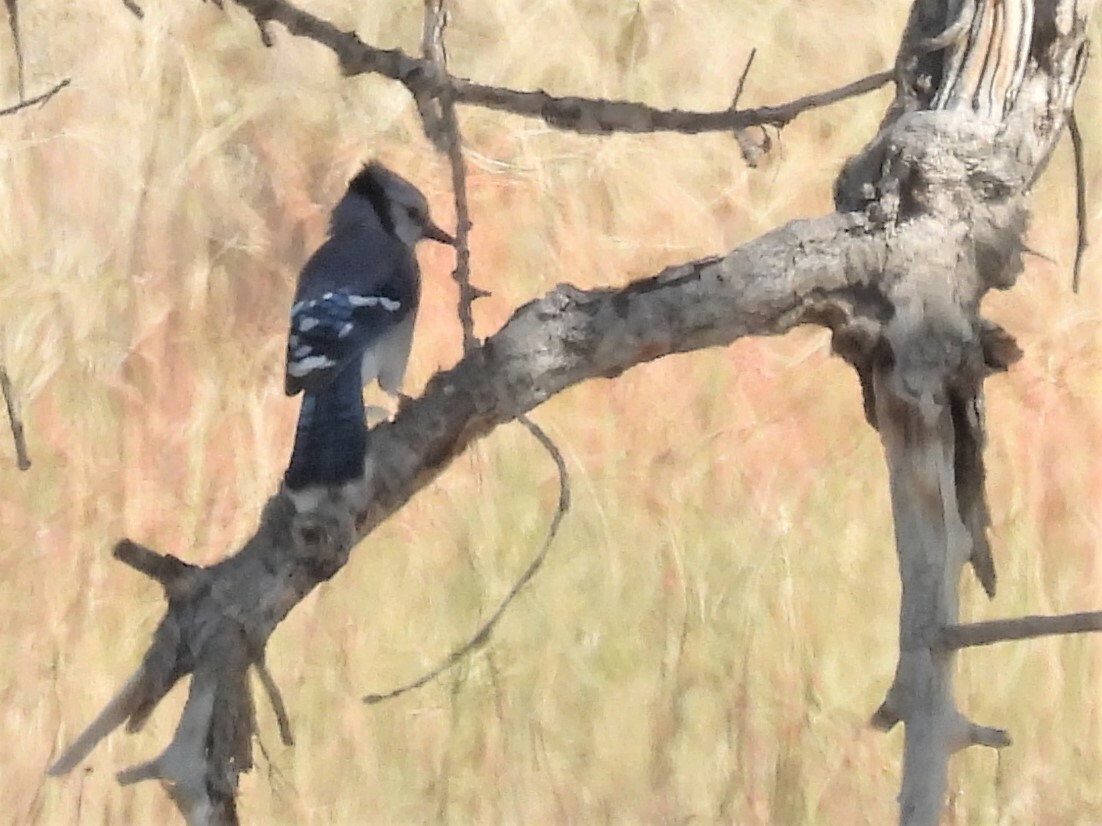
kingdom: Animalia
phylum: Chordata
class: Aves
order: Passeriformes
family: Corvidae
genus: Cyanocitta
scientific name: Cyanocitta cristata
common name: Blue jay
